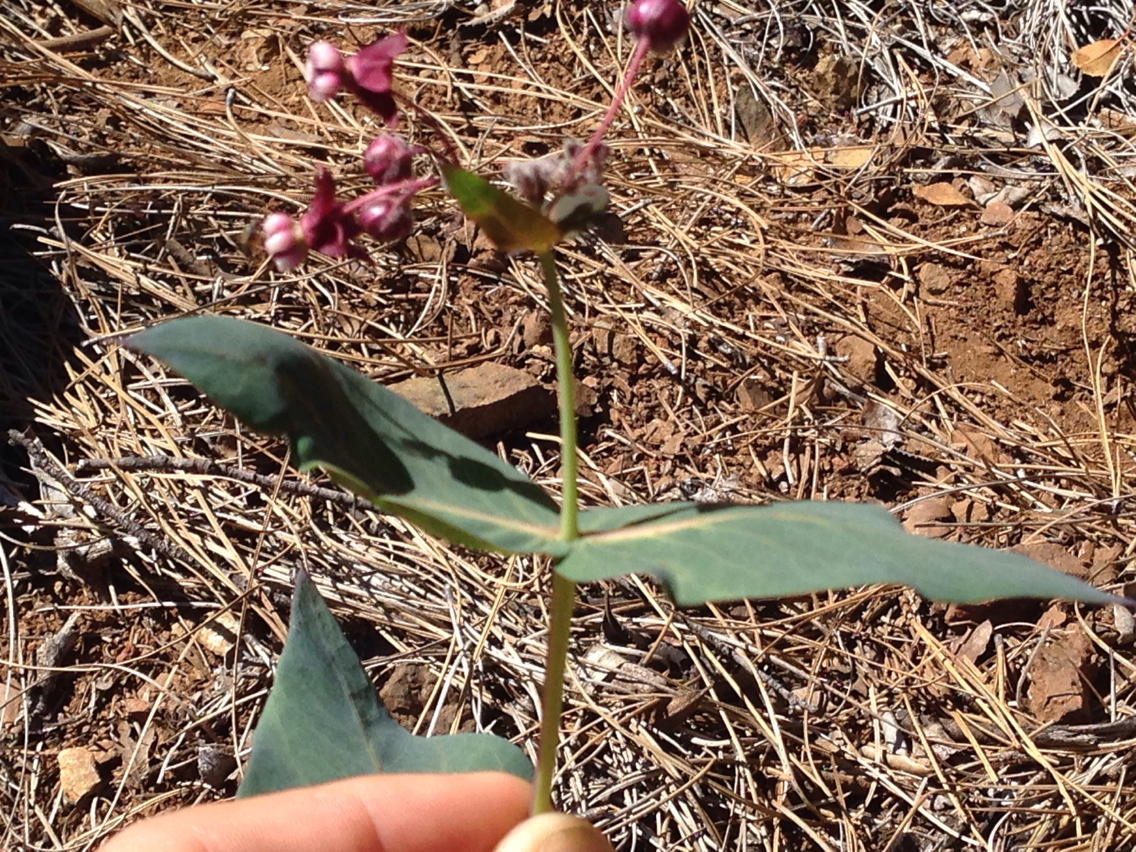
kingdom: Plantae
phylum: Tracheophyta
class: Magnoliopsida
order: Gentianales
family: Apocynaceae
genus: Asclepias
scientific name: Asclepias cordifolia
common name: Purple milkweed
